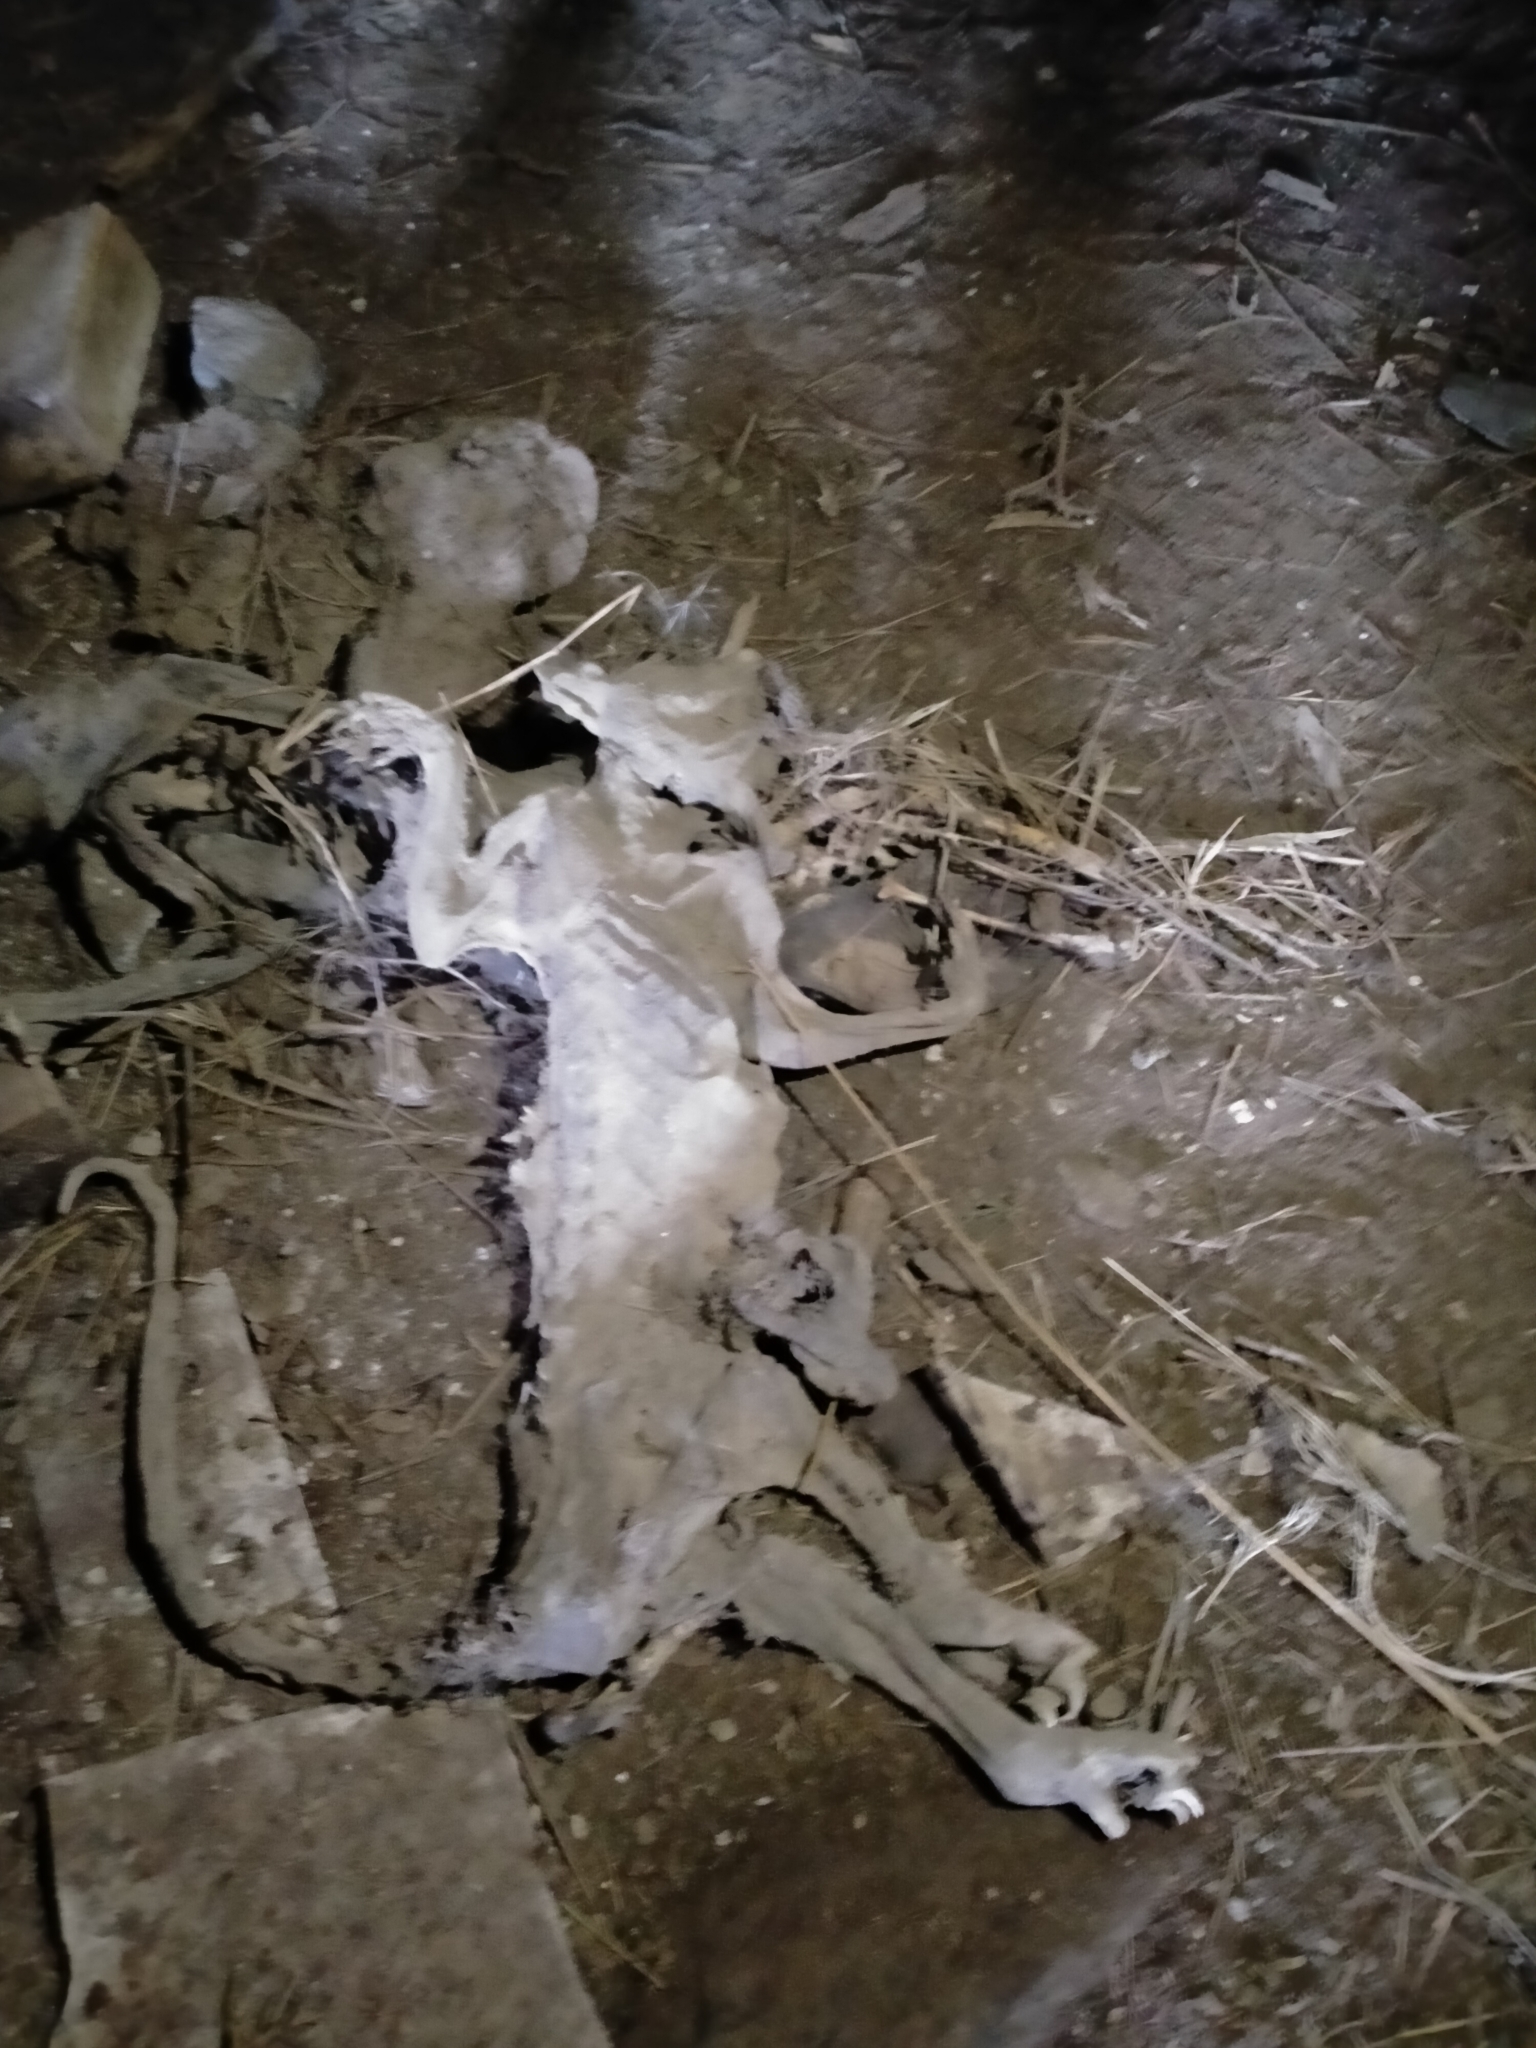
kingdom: Animalia
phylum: Chordata
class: Mammalia
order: Diprotodontia
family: Phalangeridae
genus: Trichosurus
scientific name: Trichosurus vulpecula
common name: Common brushtail
